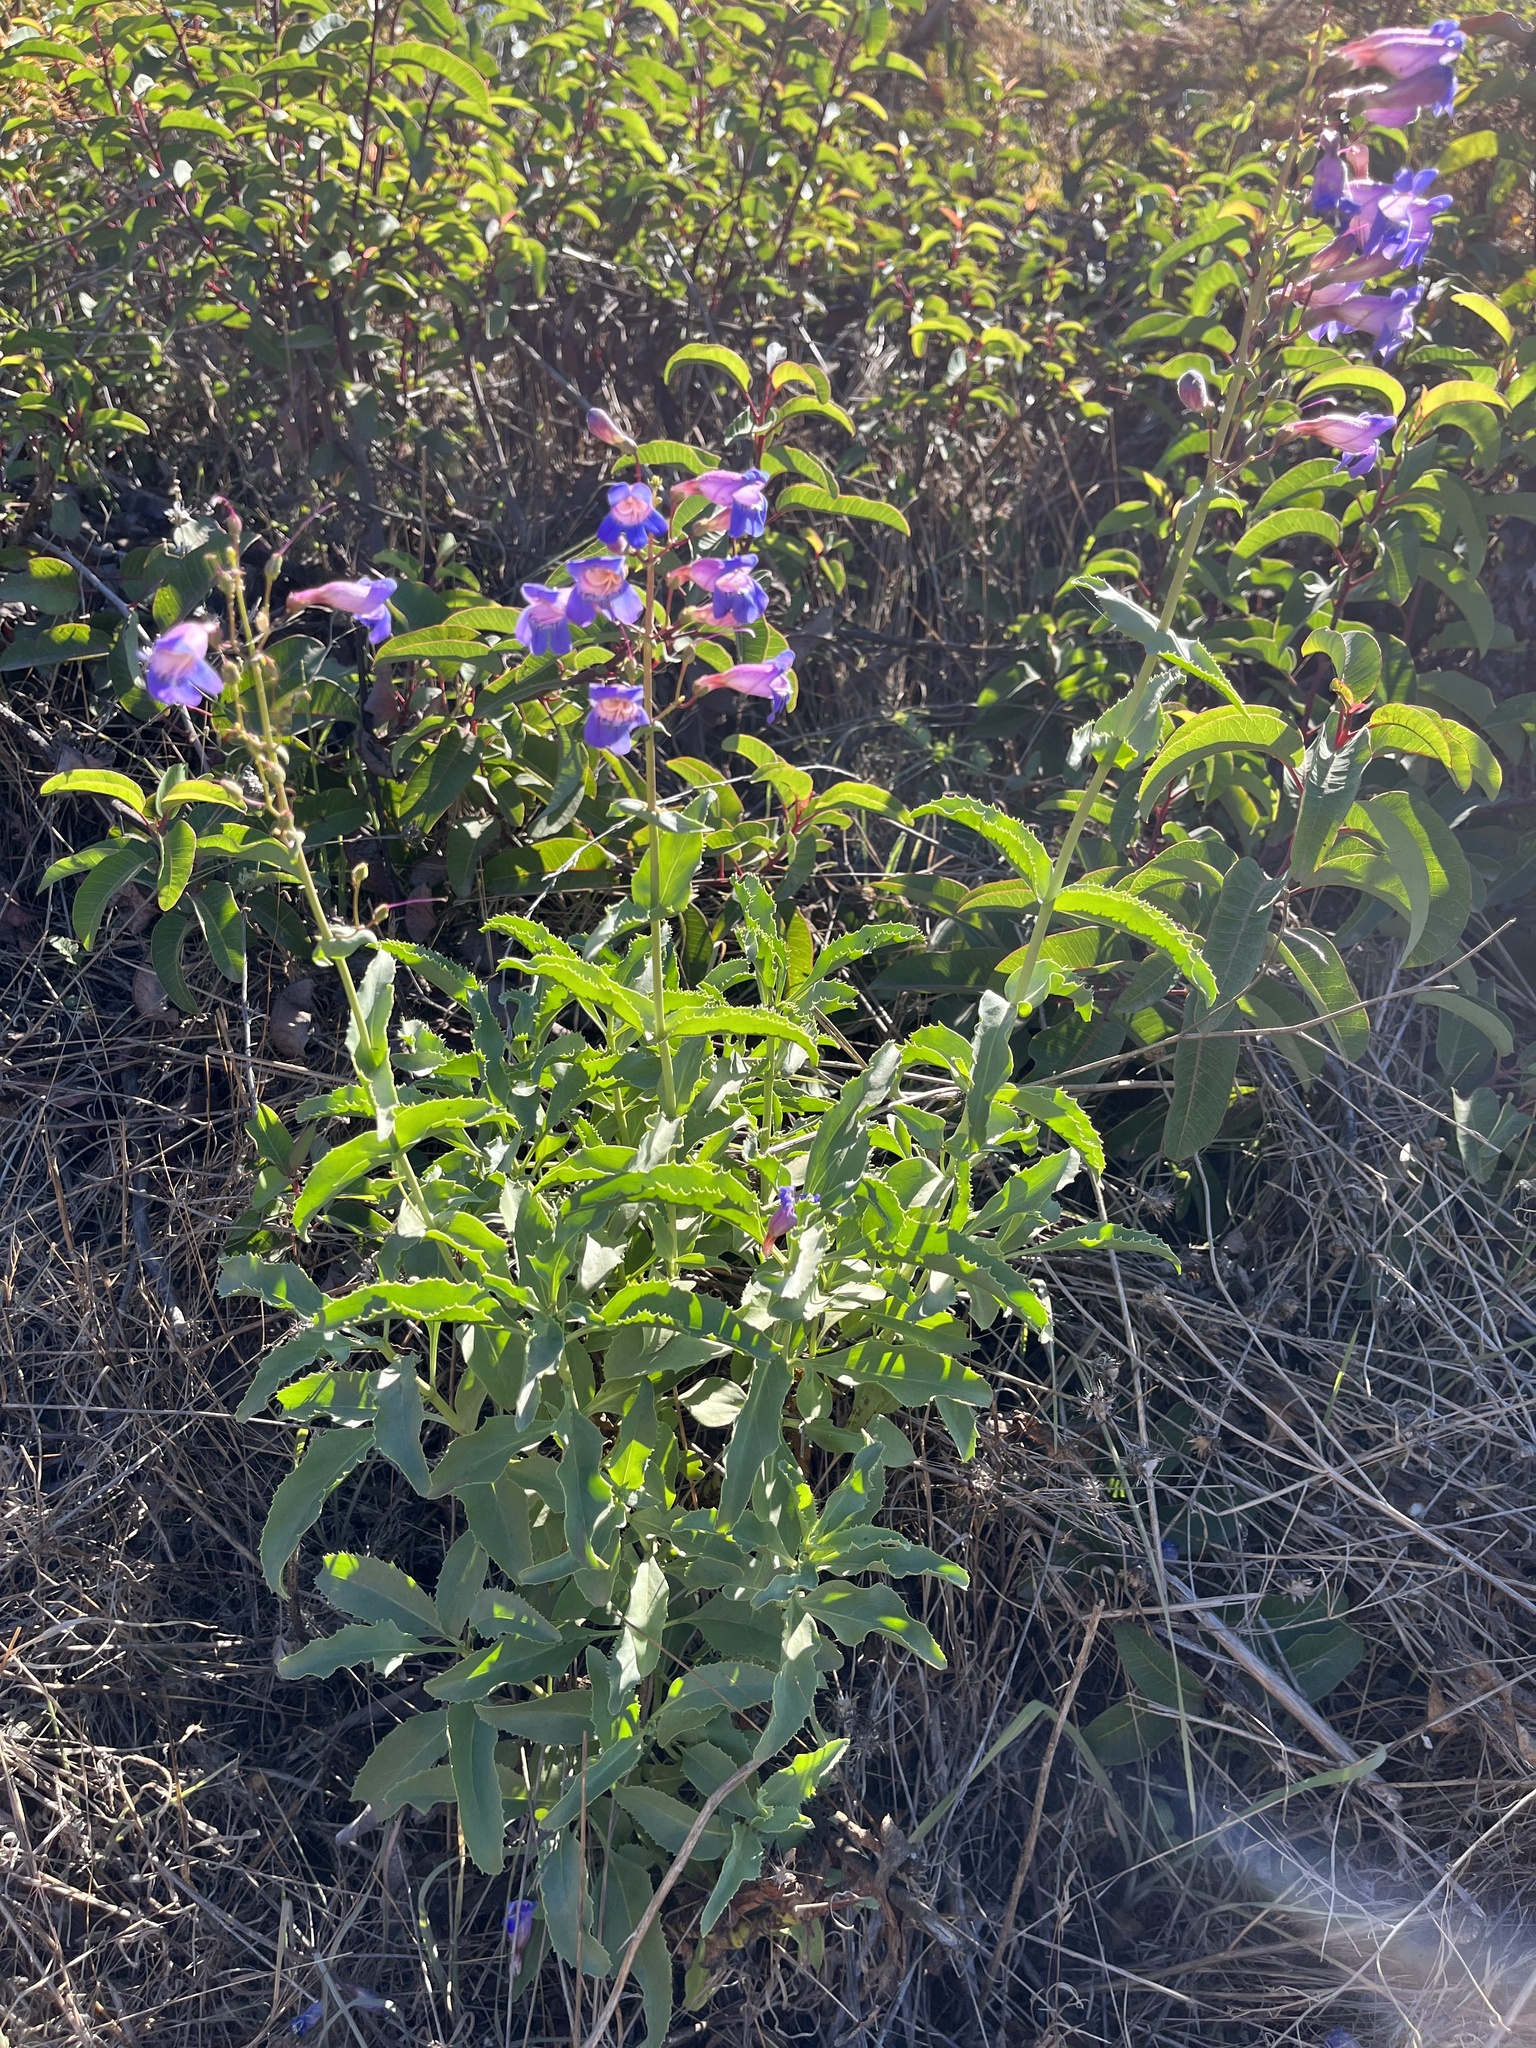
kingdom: Plantae
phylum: Tracheophyta
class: Magnoliopsida
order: Lamiales
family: Plantaginaceae
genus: Penstemon
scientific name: Penstemon spectabilis
